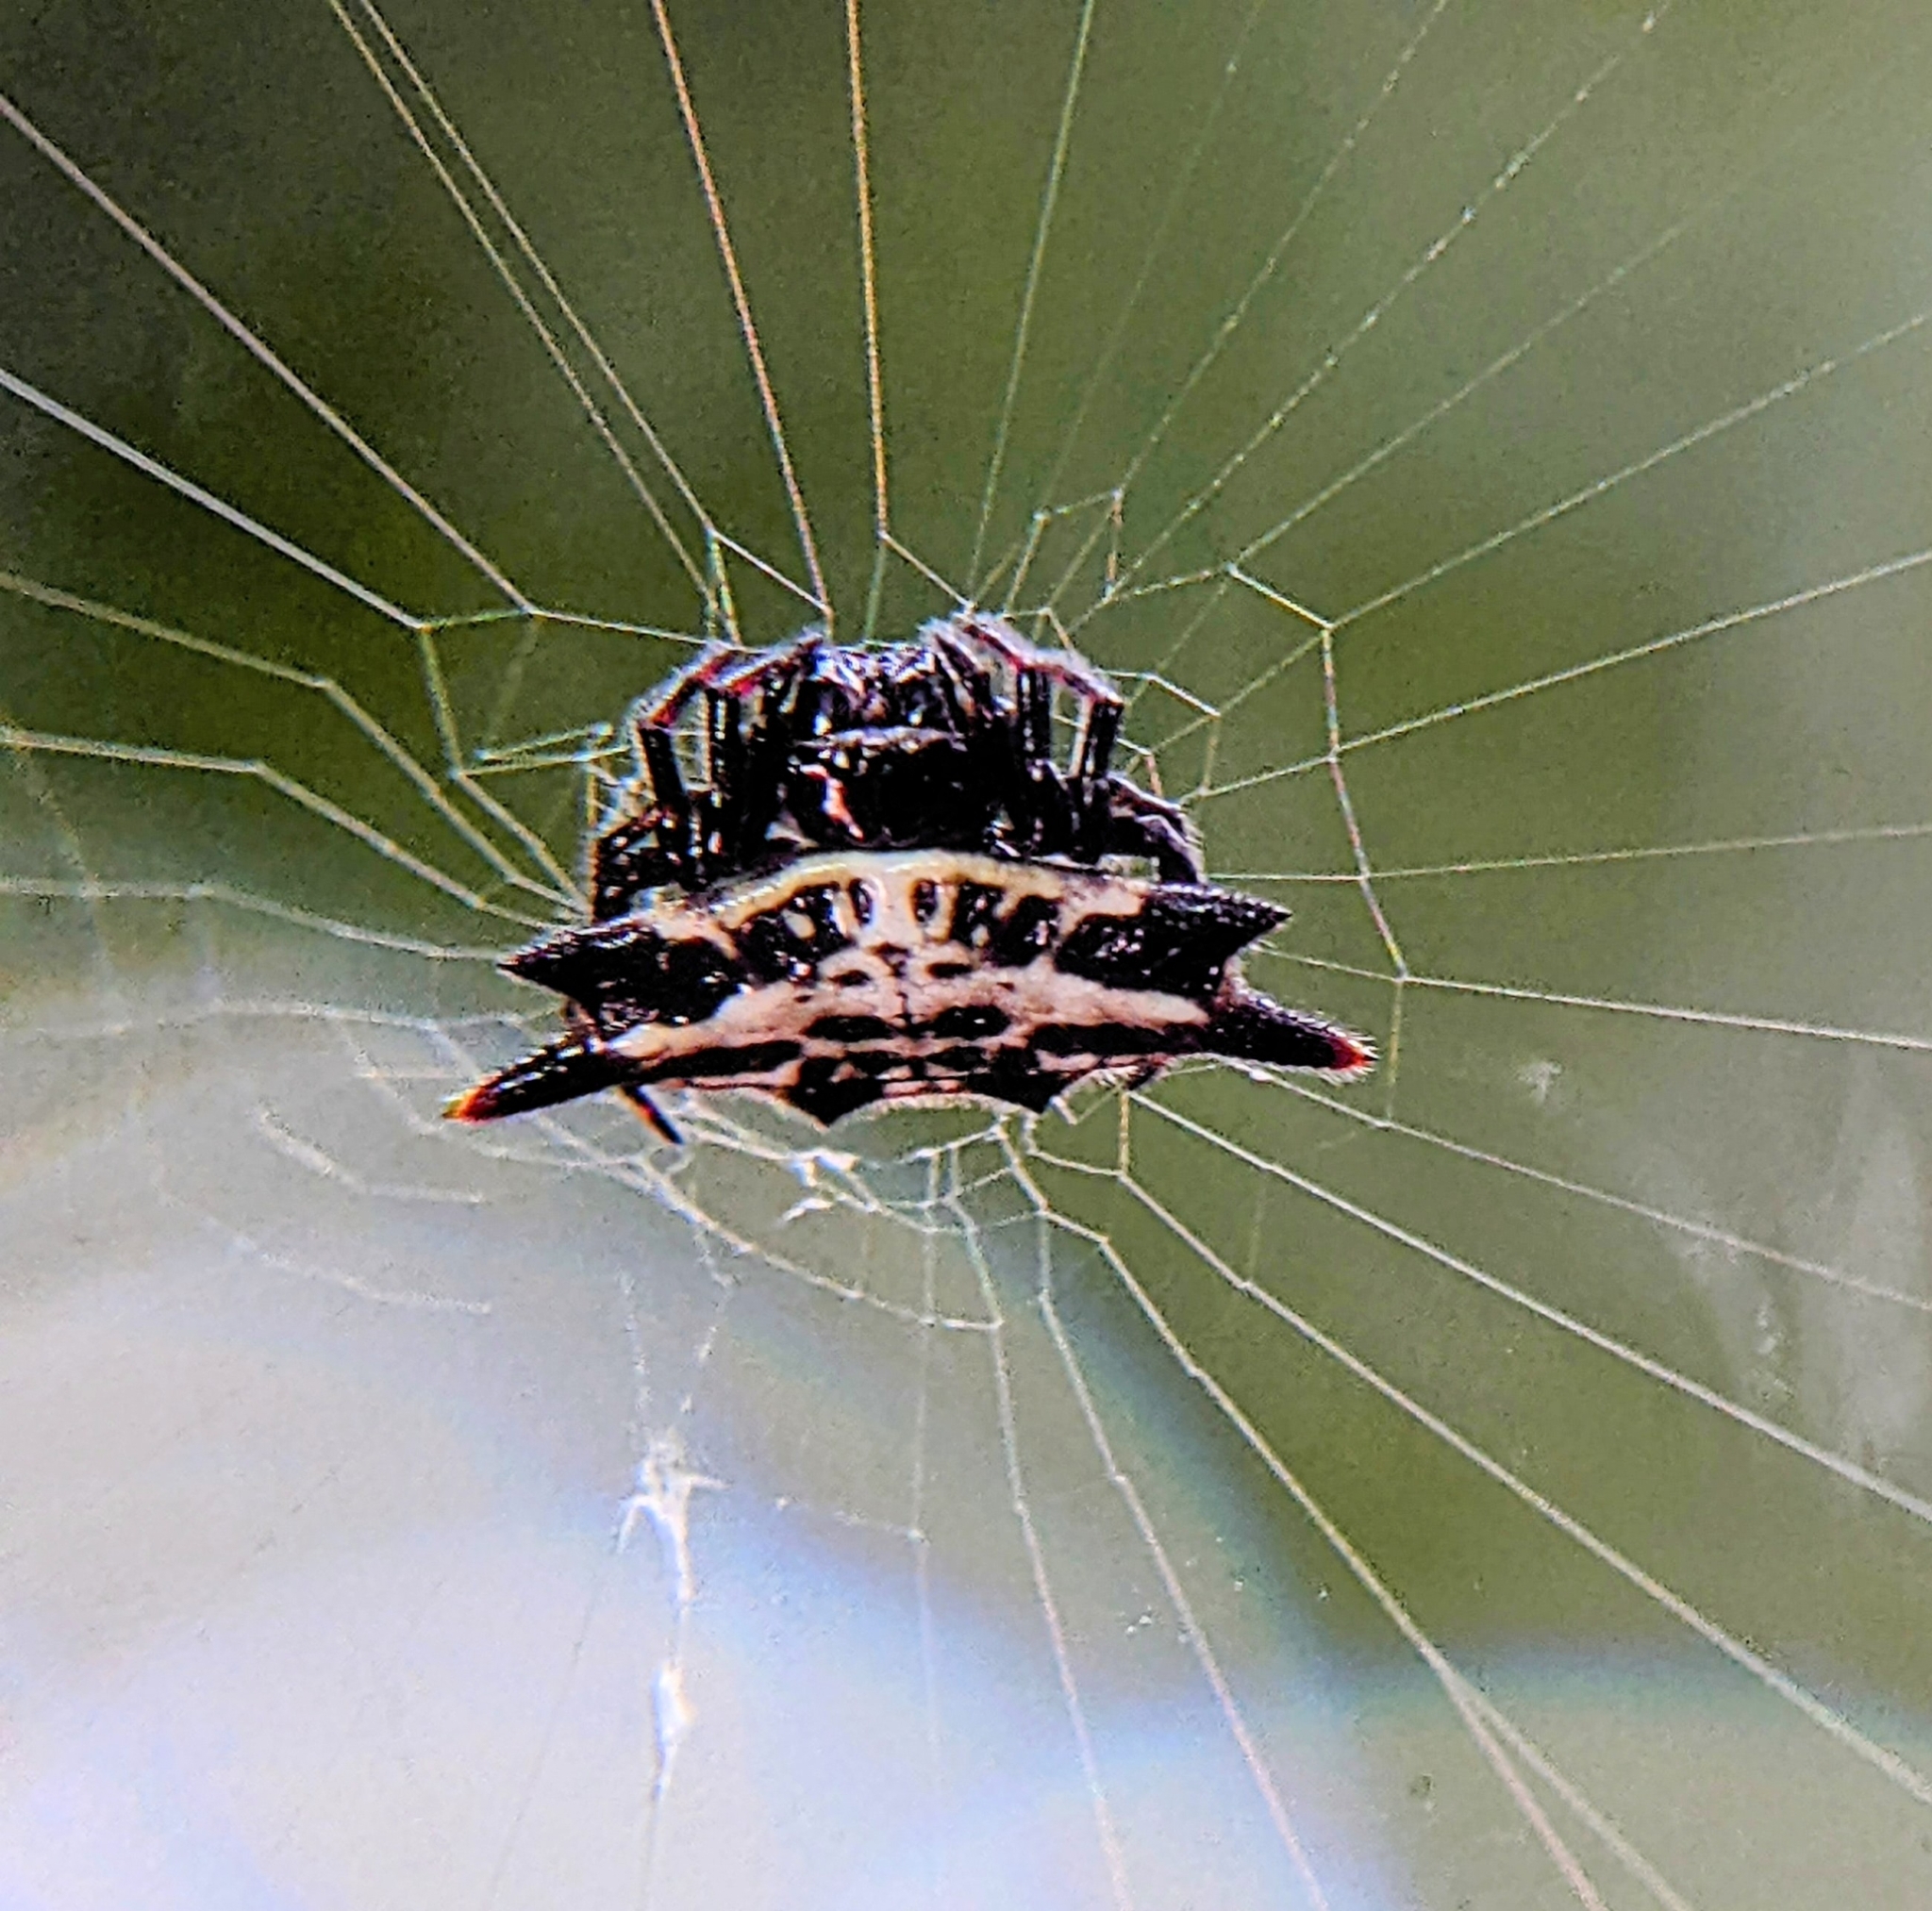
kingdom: Animalia
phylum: Arthropoda
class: Arachnida
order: Araneae
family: Araneidae
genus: Gasteracantha
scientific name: Gasteracantha kuhli
